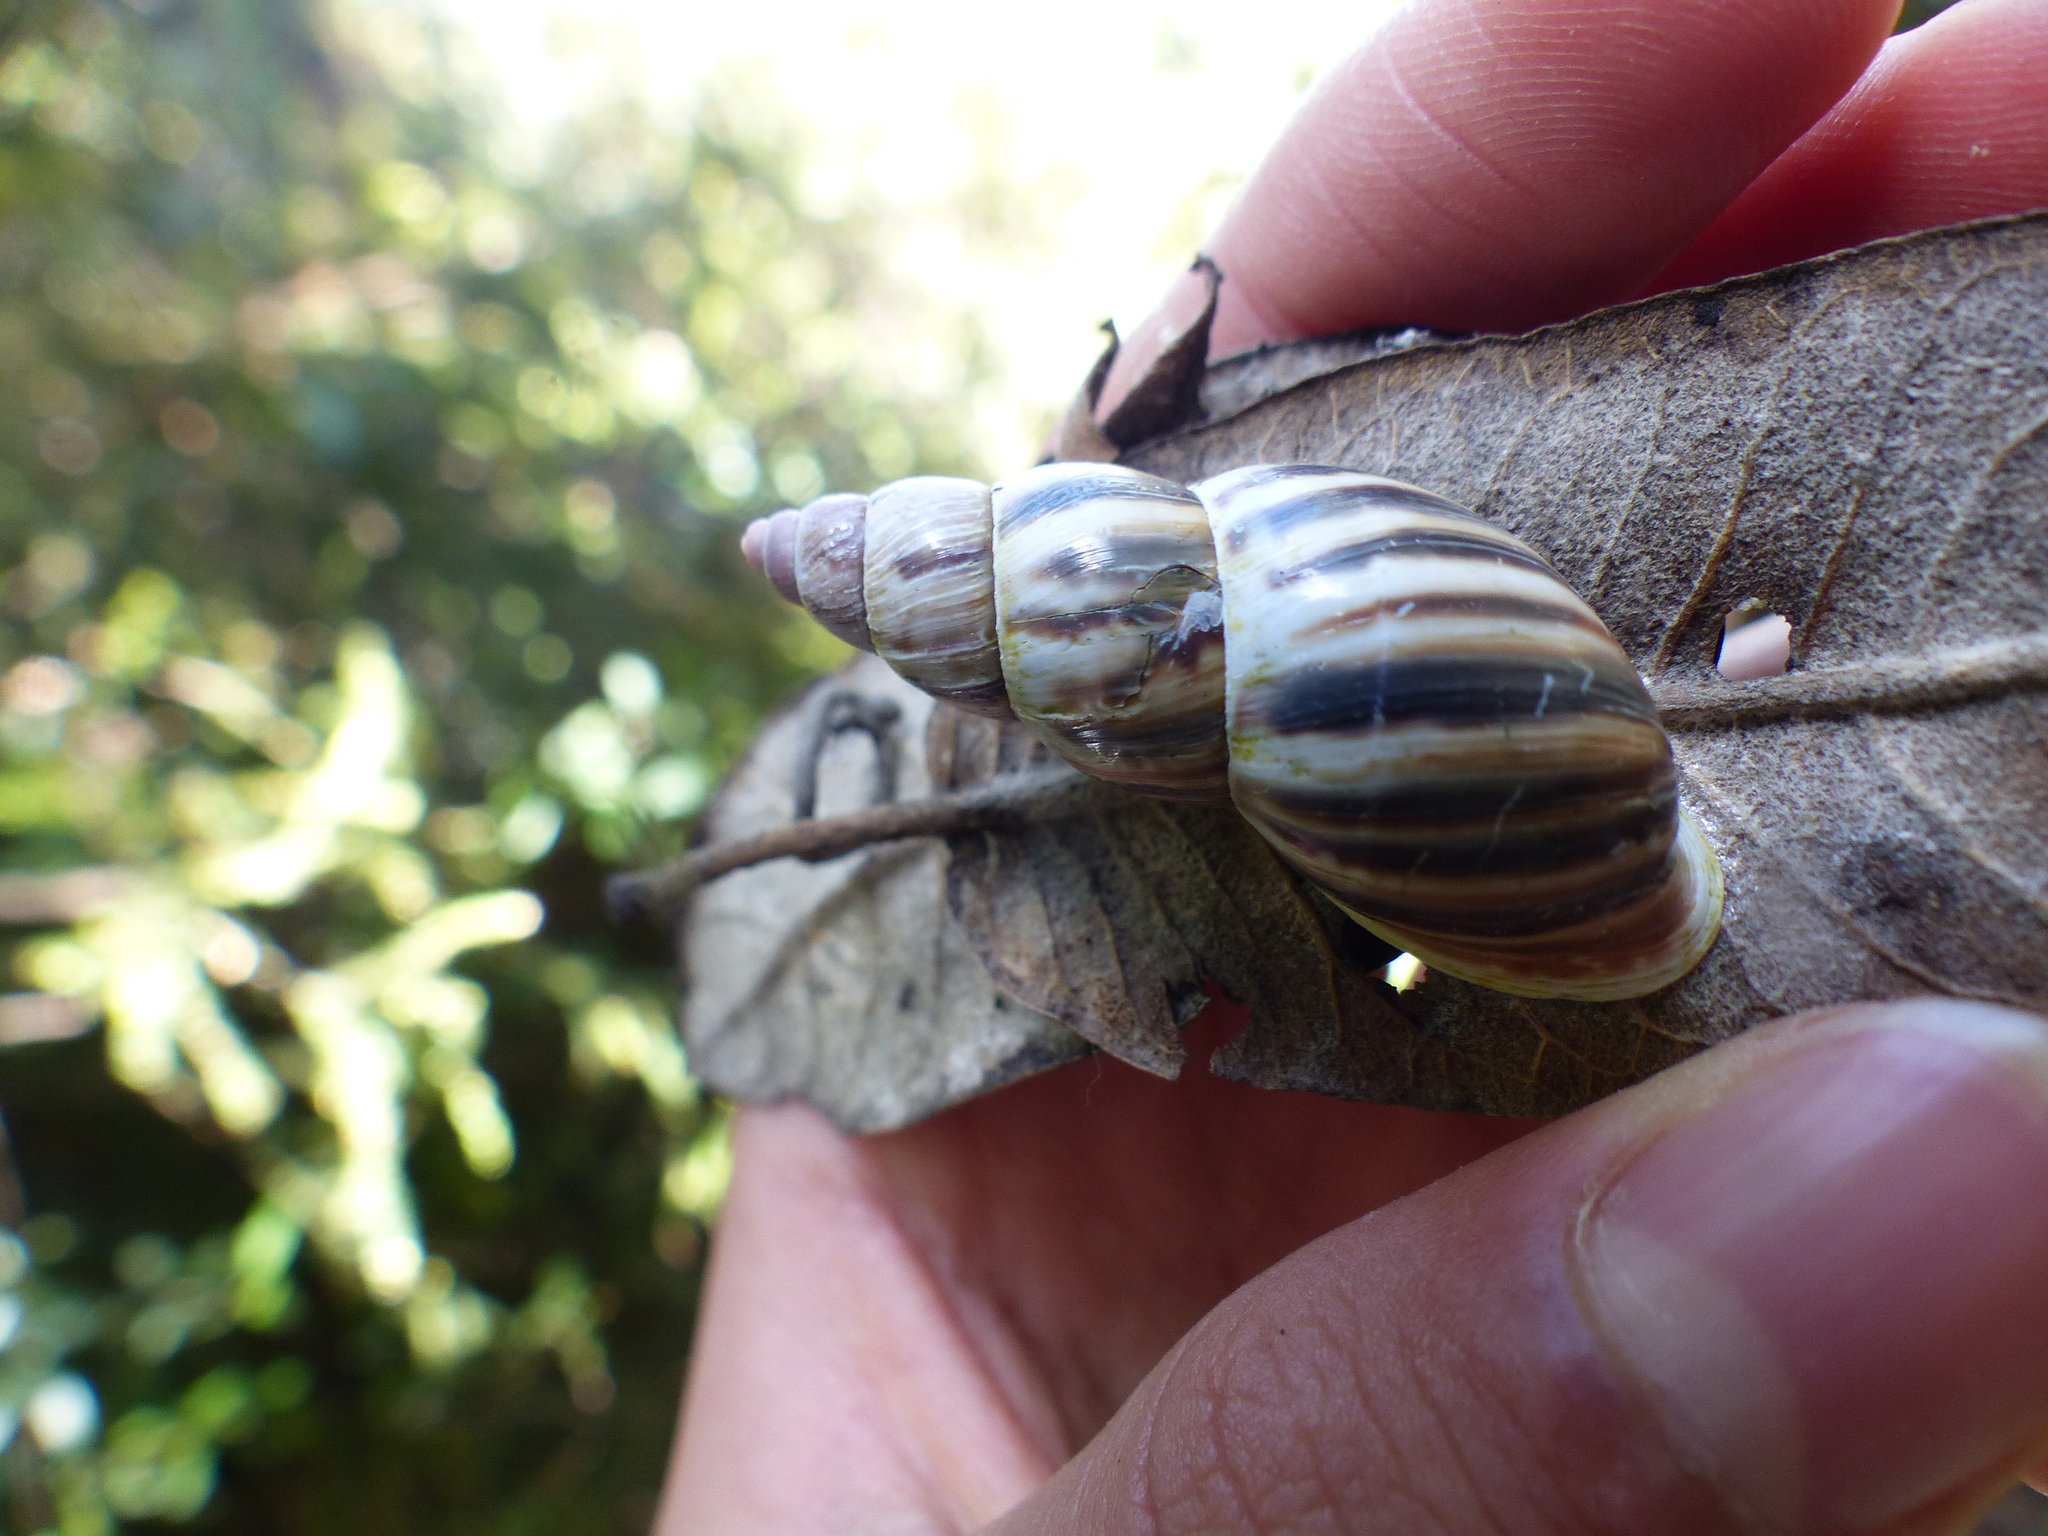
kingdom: Animalia
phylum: Mollusca
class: Gastropoda
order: Stylommatophora
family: Bulimulidae
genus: Drymaeus
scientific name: Drymaeus convexus
